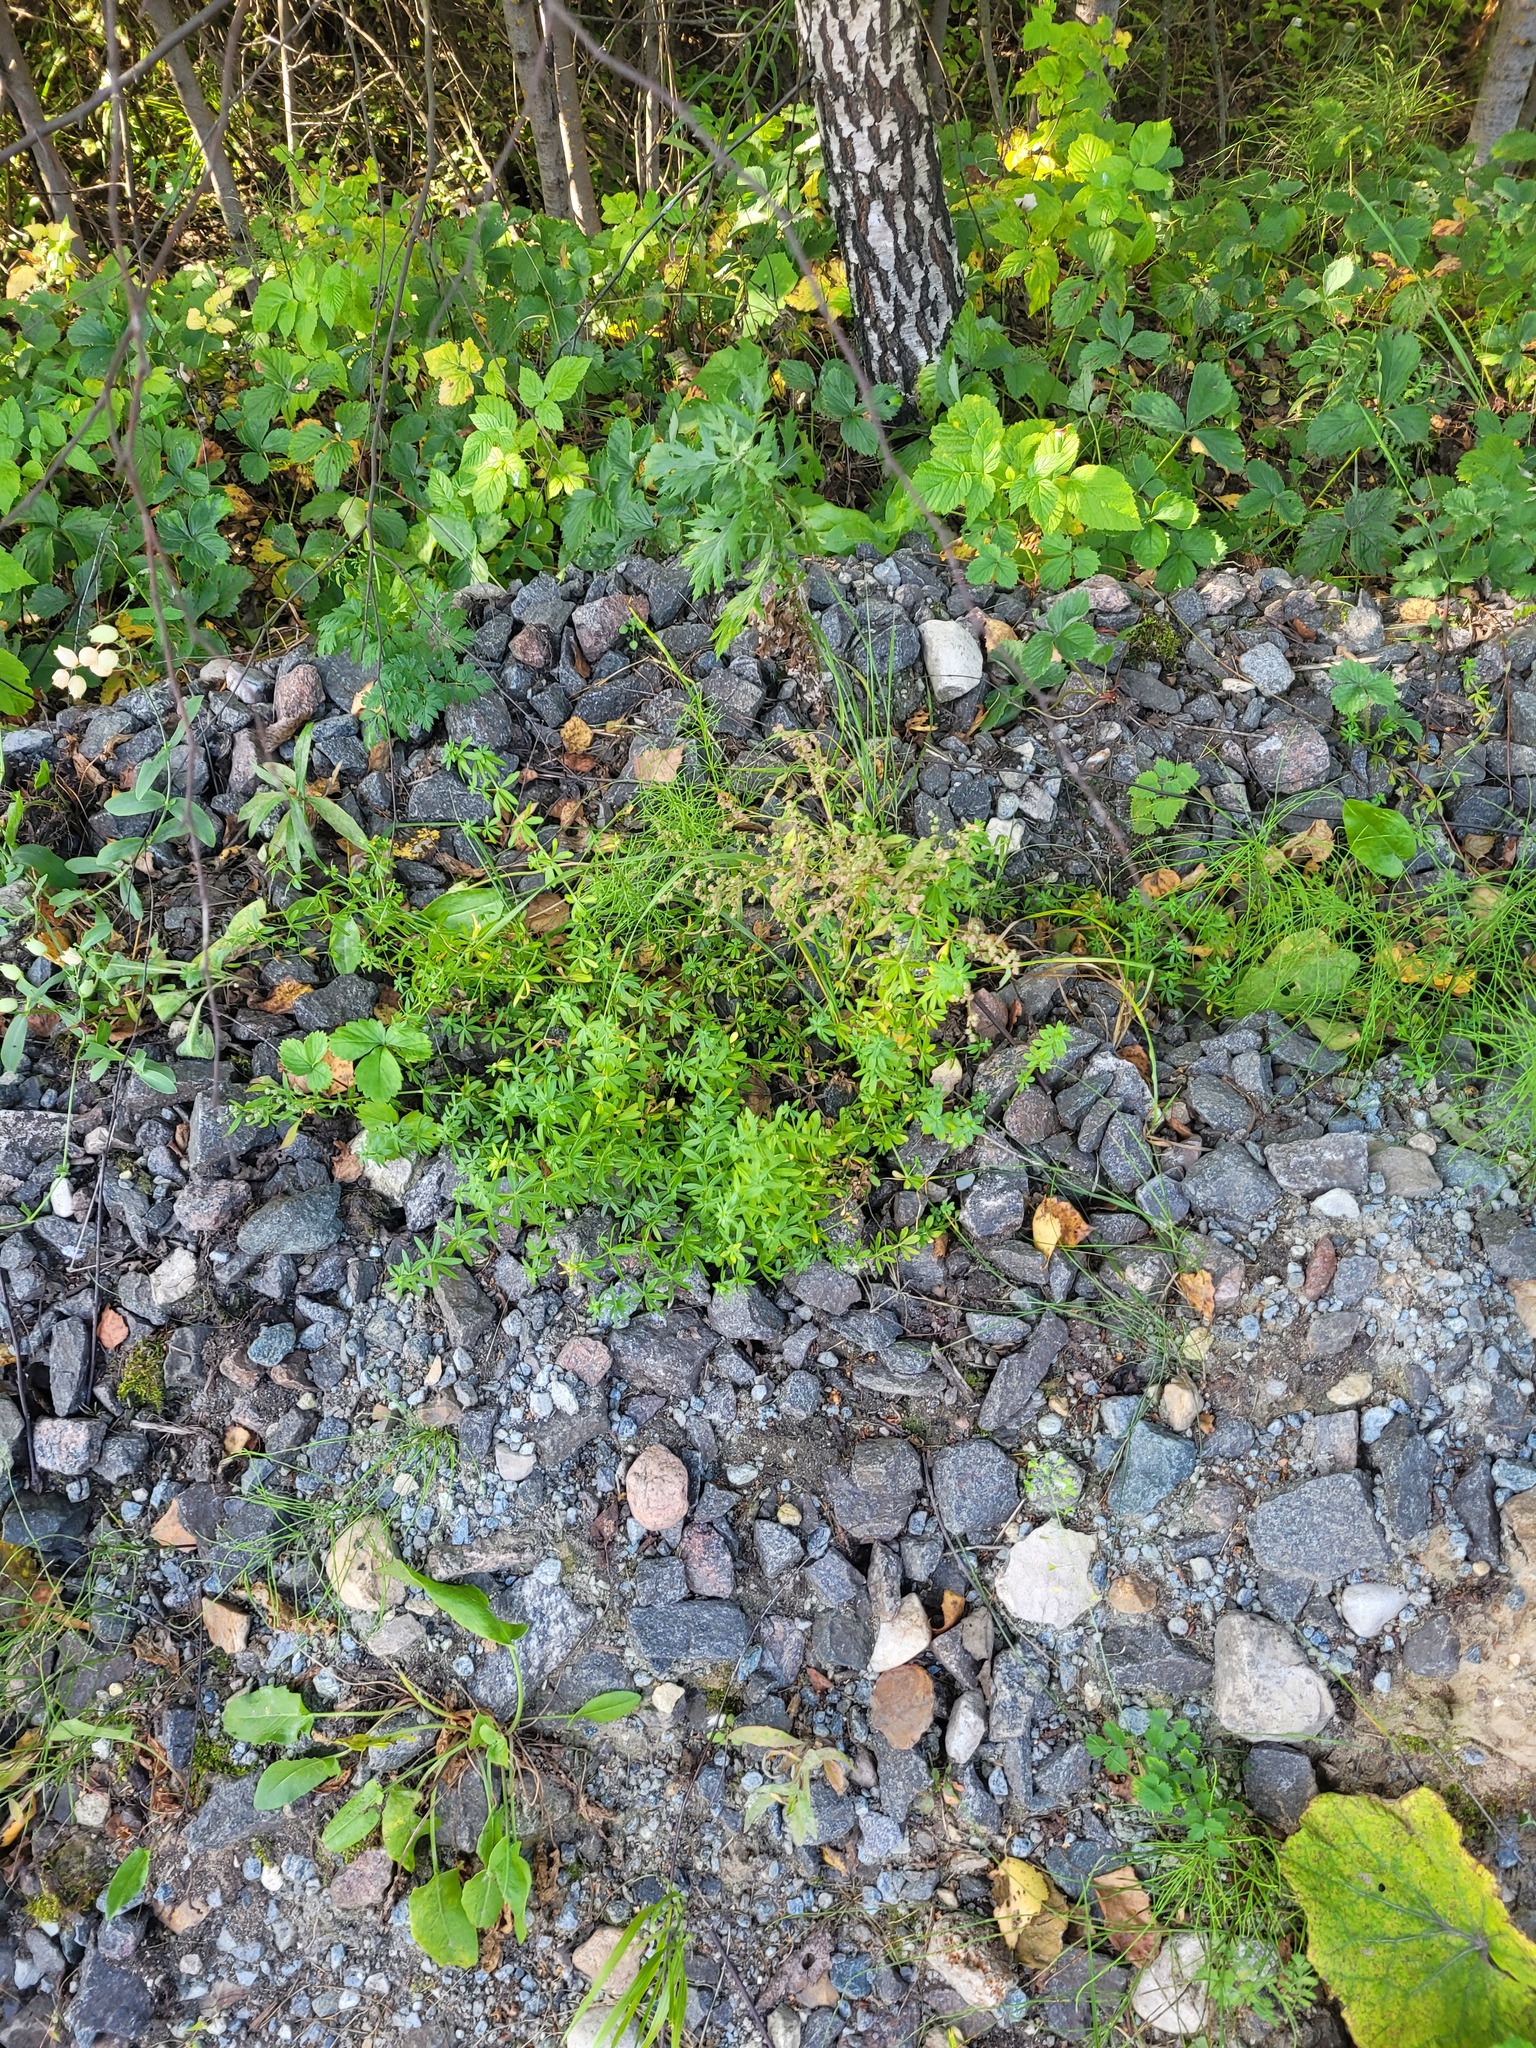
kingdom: Plantae
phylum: Tracheophyta
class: Magnoliopsida
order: Gentianales
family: Rubiaceae
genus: Galium
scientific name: Galium mollugo
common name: Hedge bedstraw
